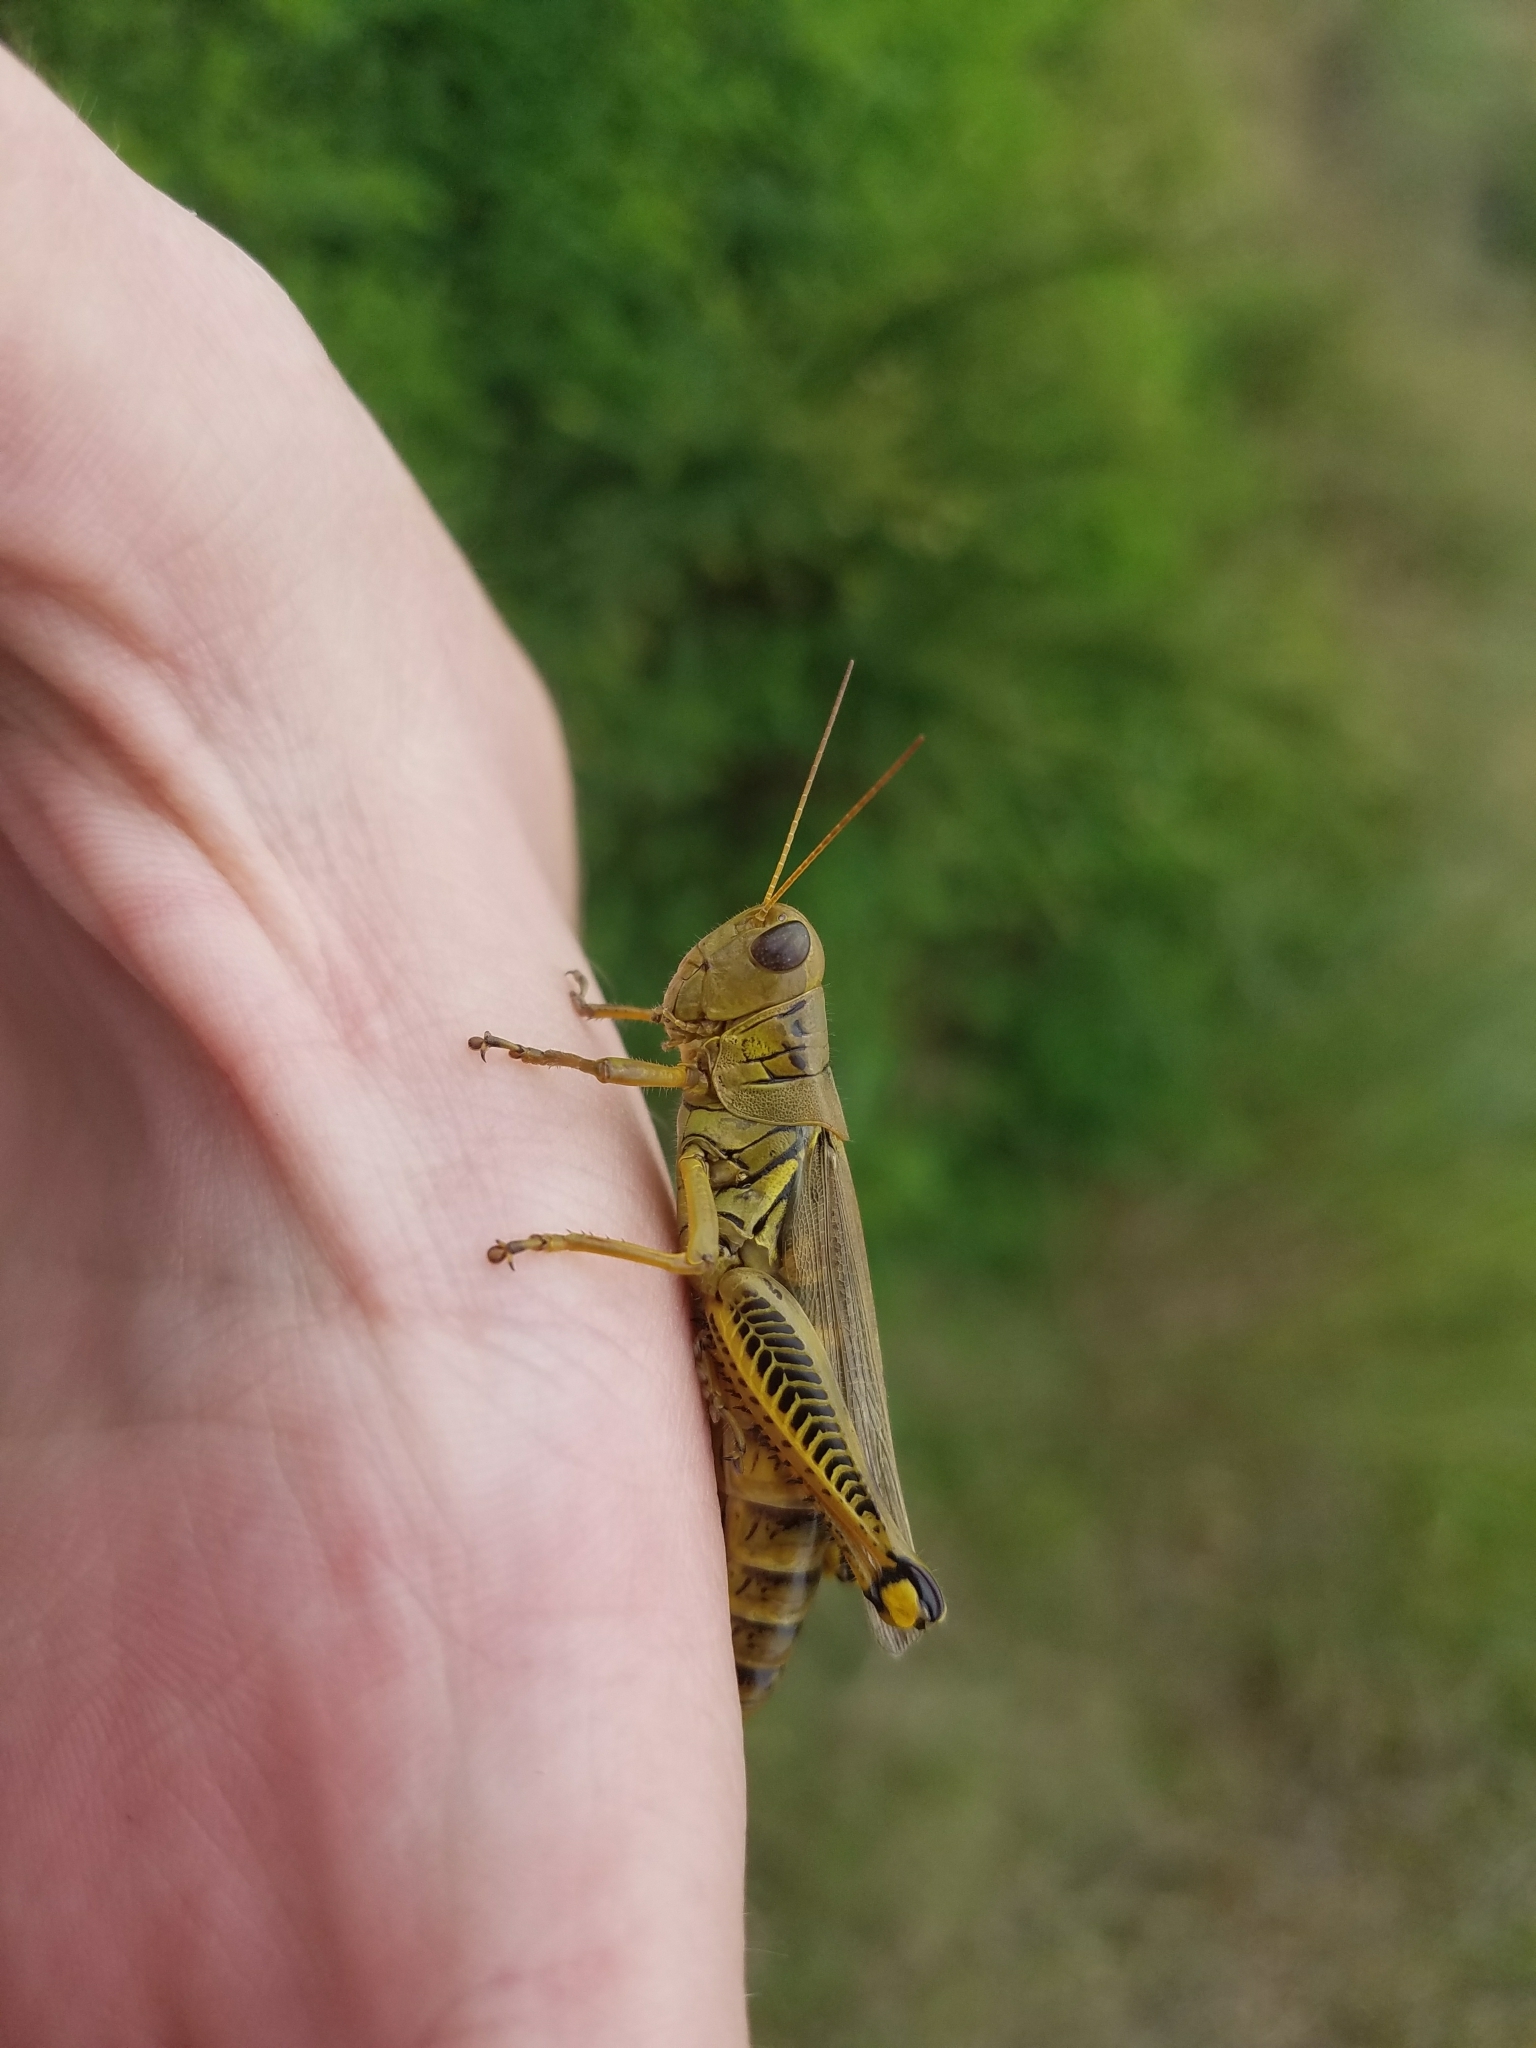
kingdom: Animalia
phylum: Arthropoda
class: Insecta
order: Orthoptera
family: Acrididae
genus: Melanoplus
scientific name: Melanoplus differentialis
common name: Differential grasshopper
